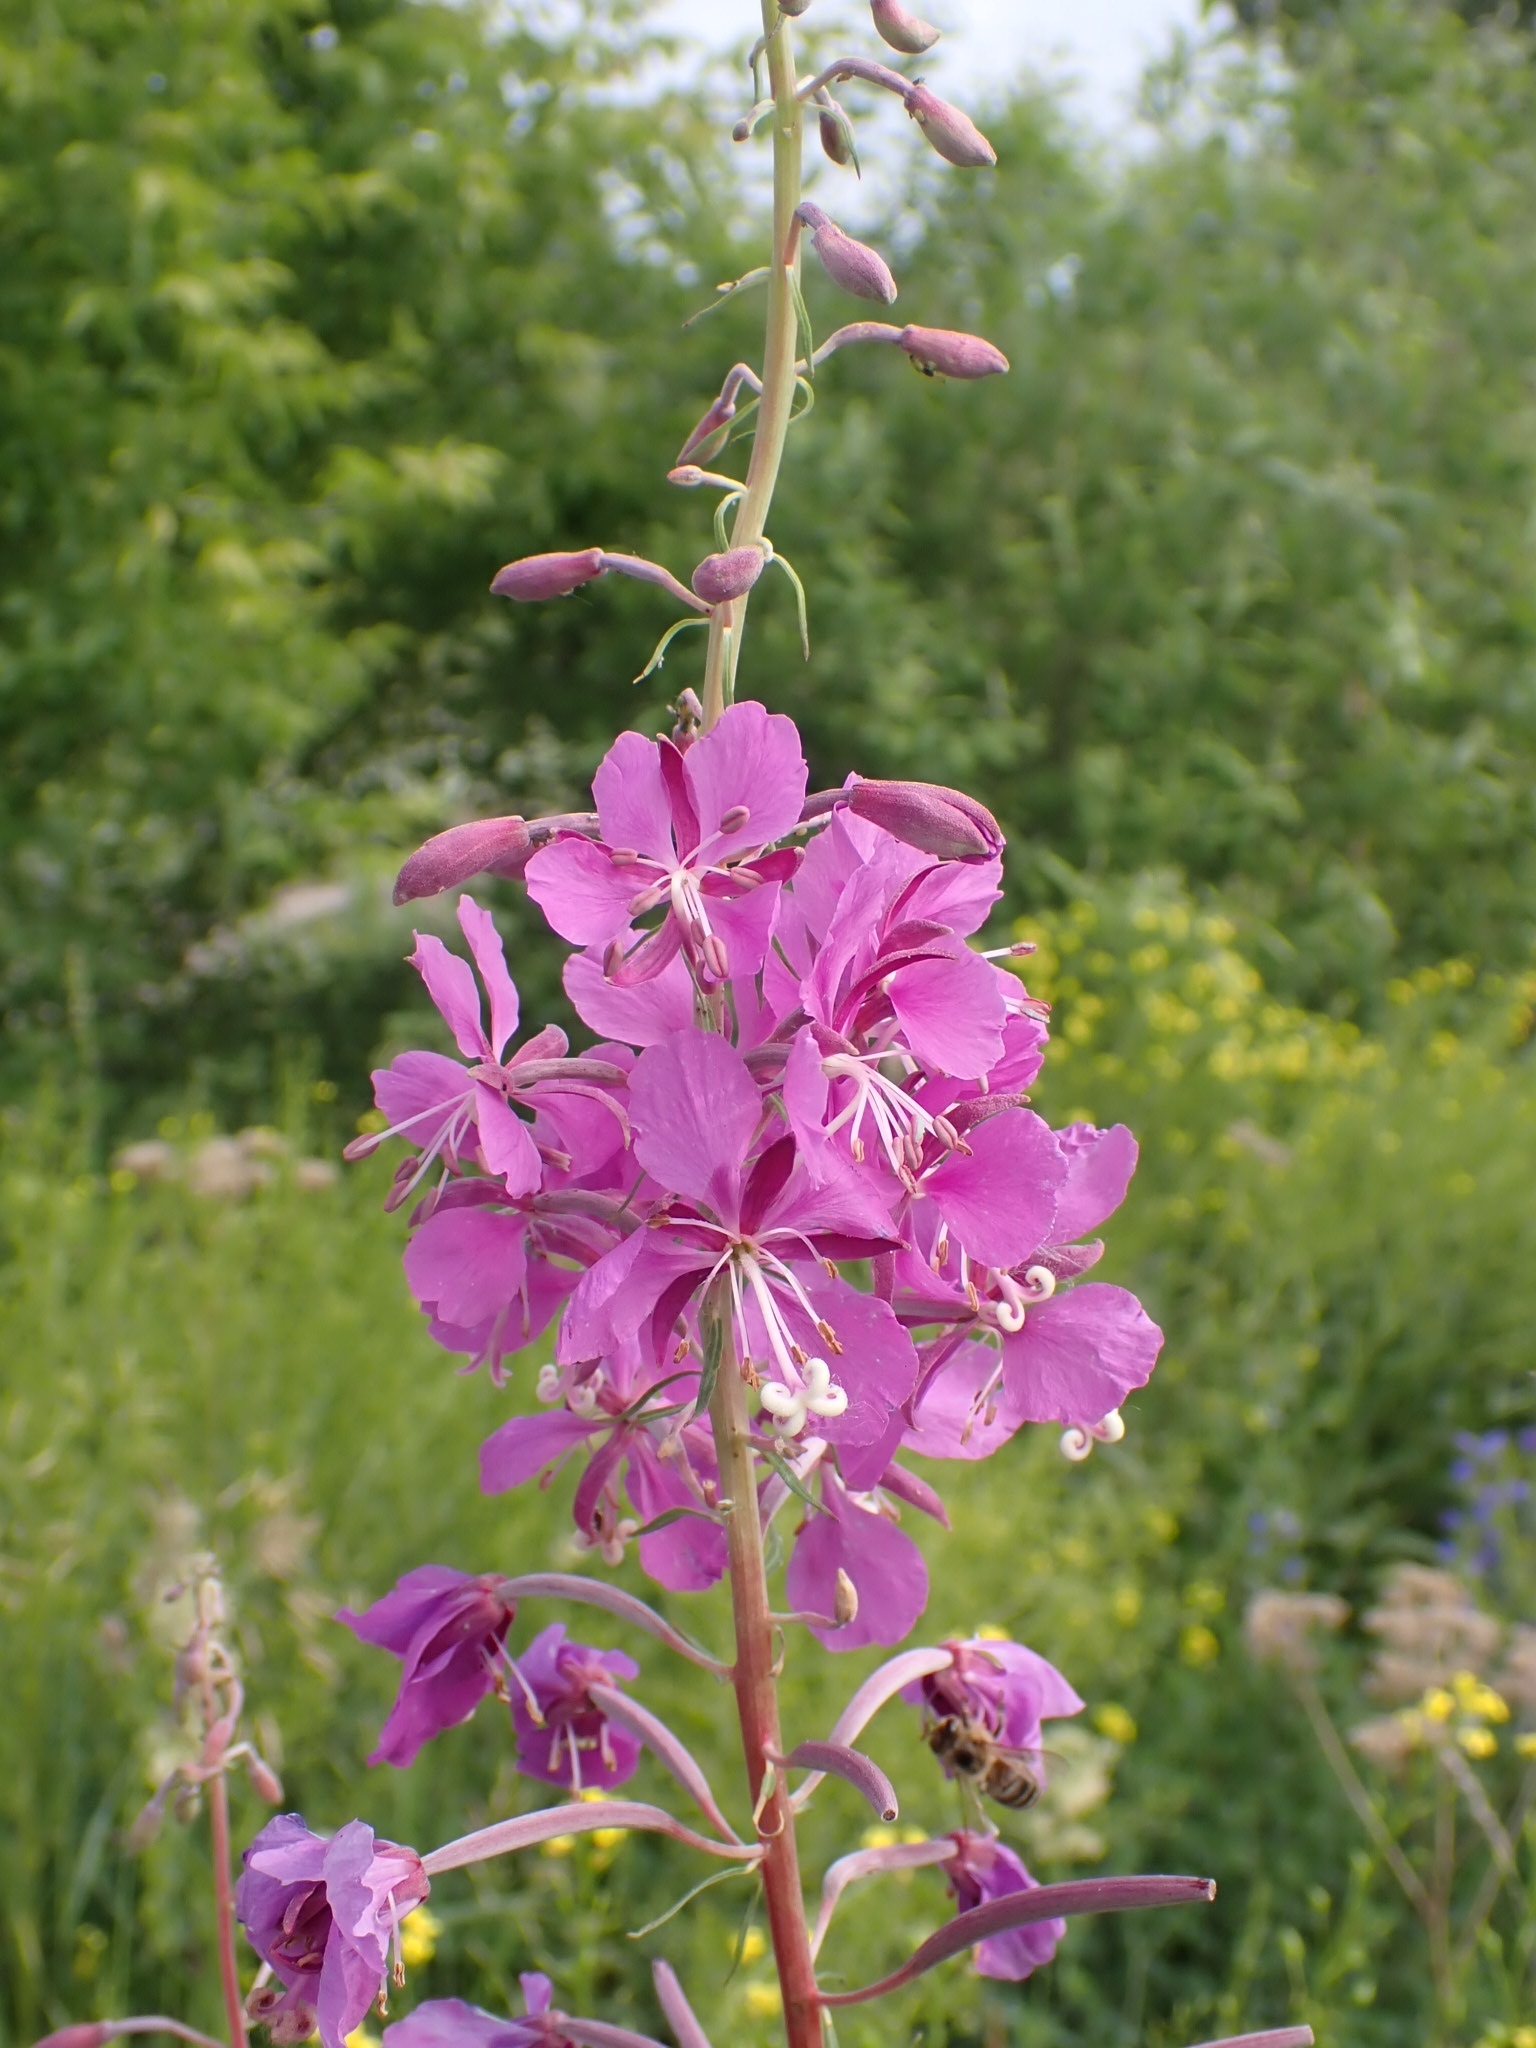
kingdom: Plantae
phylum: Tracheophyta
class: Magnoliopsida
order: Myrtales
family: Onagraceae
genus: Chamaenerion
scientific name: Chamaenerion angustifolium
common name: Fireweed
